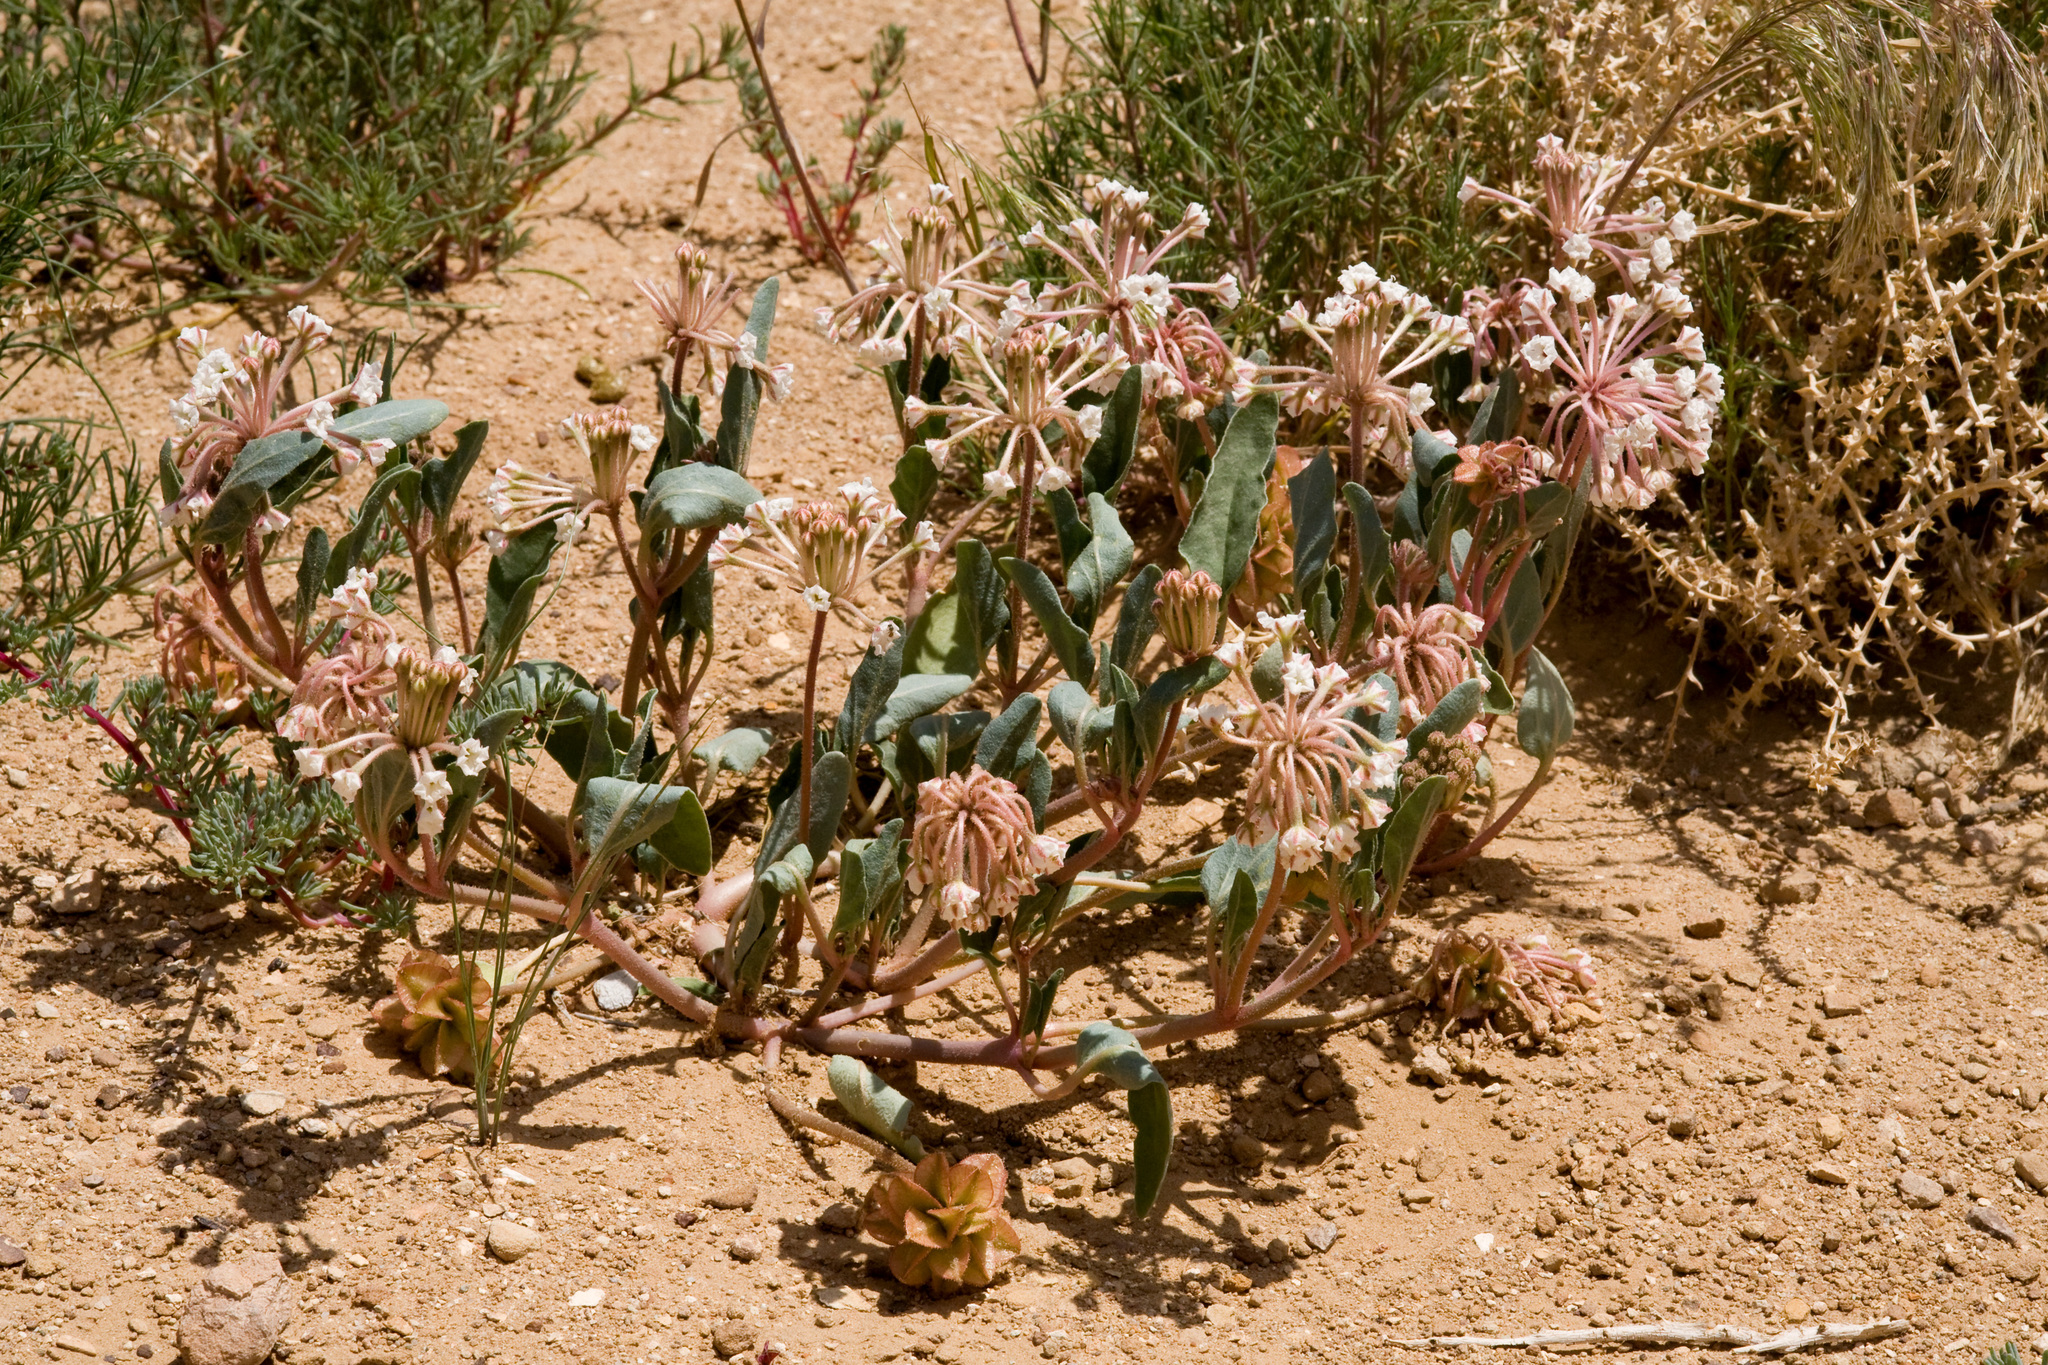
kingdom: Plantae
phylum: Tracheophyta
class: Magnoliopsida
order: Caryophyllales
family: Nyctaginaceae
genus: Tripterocalyx
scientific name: Tripterocalyx carneus
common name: Winged sandpuffs
